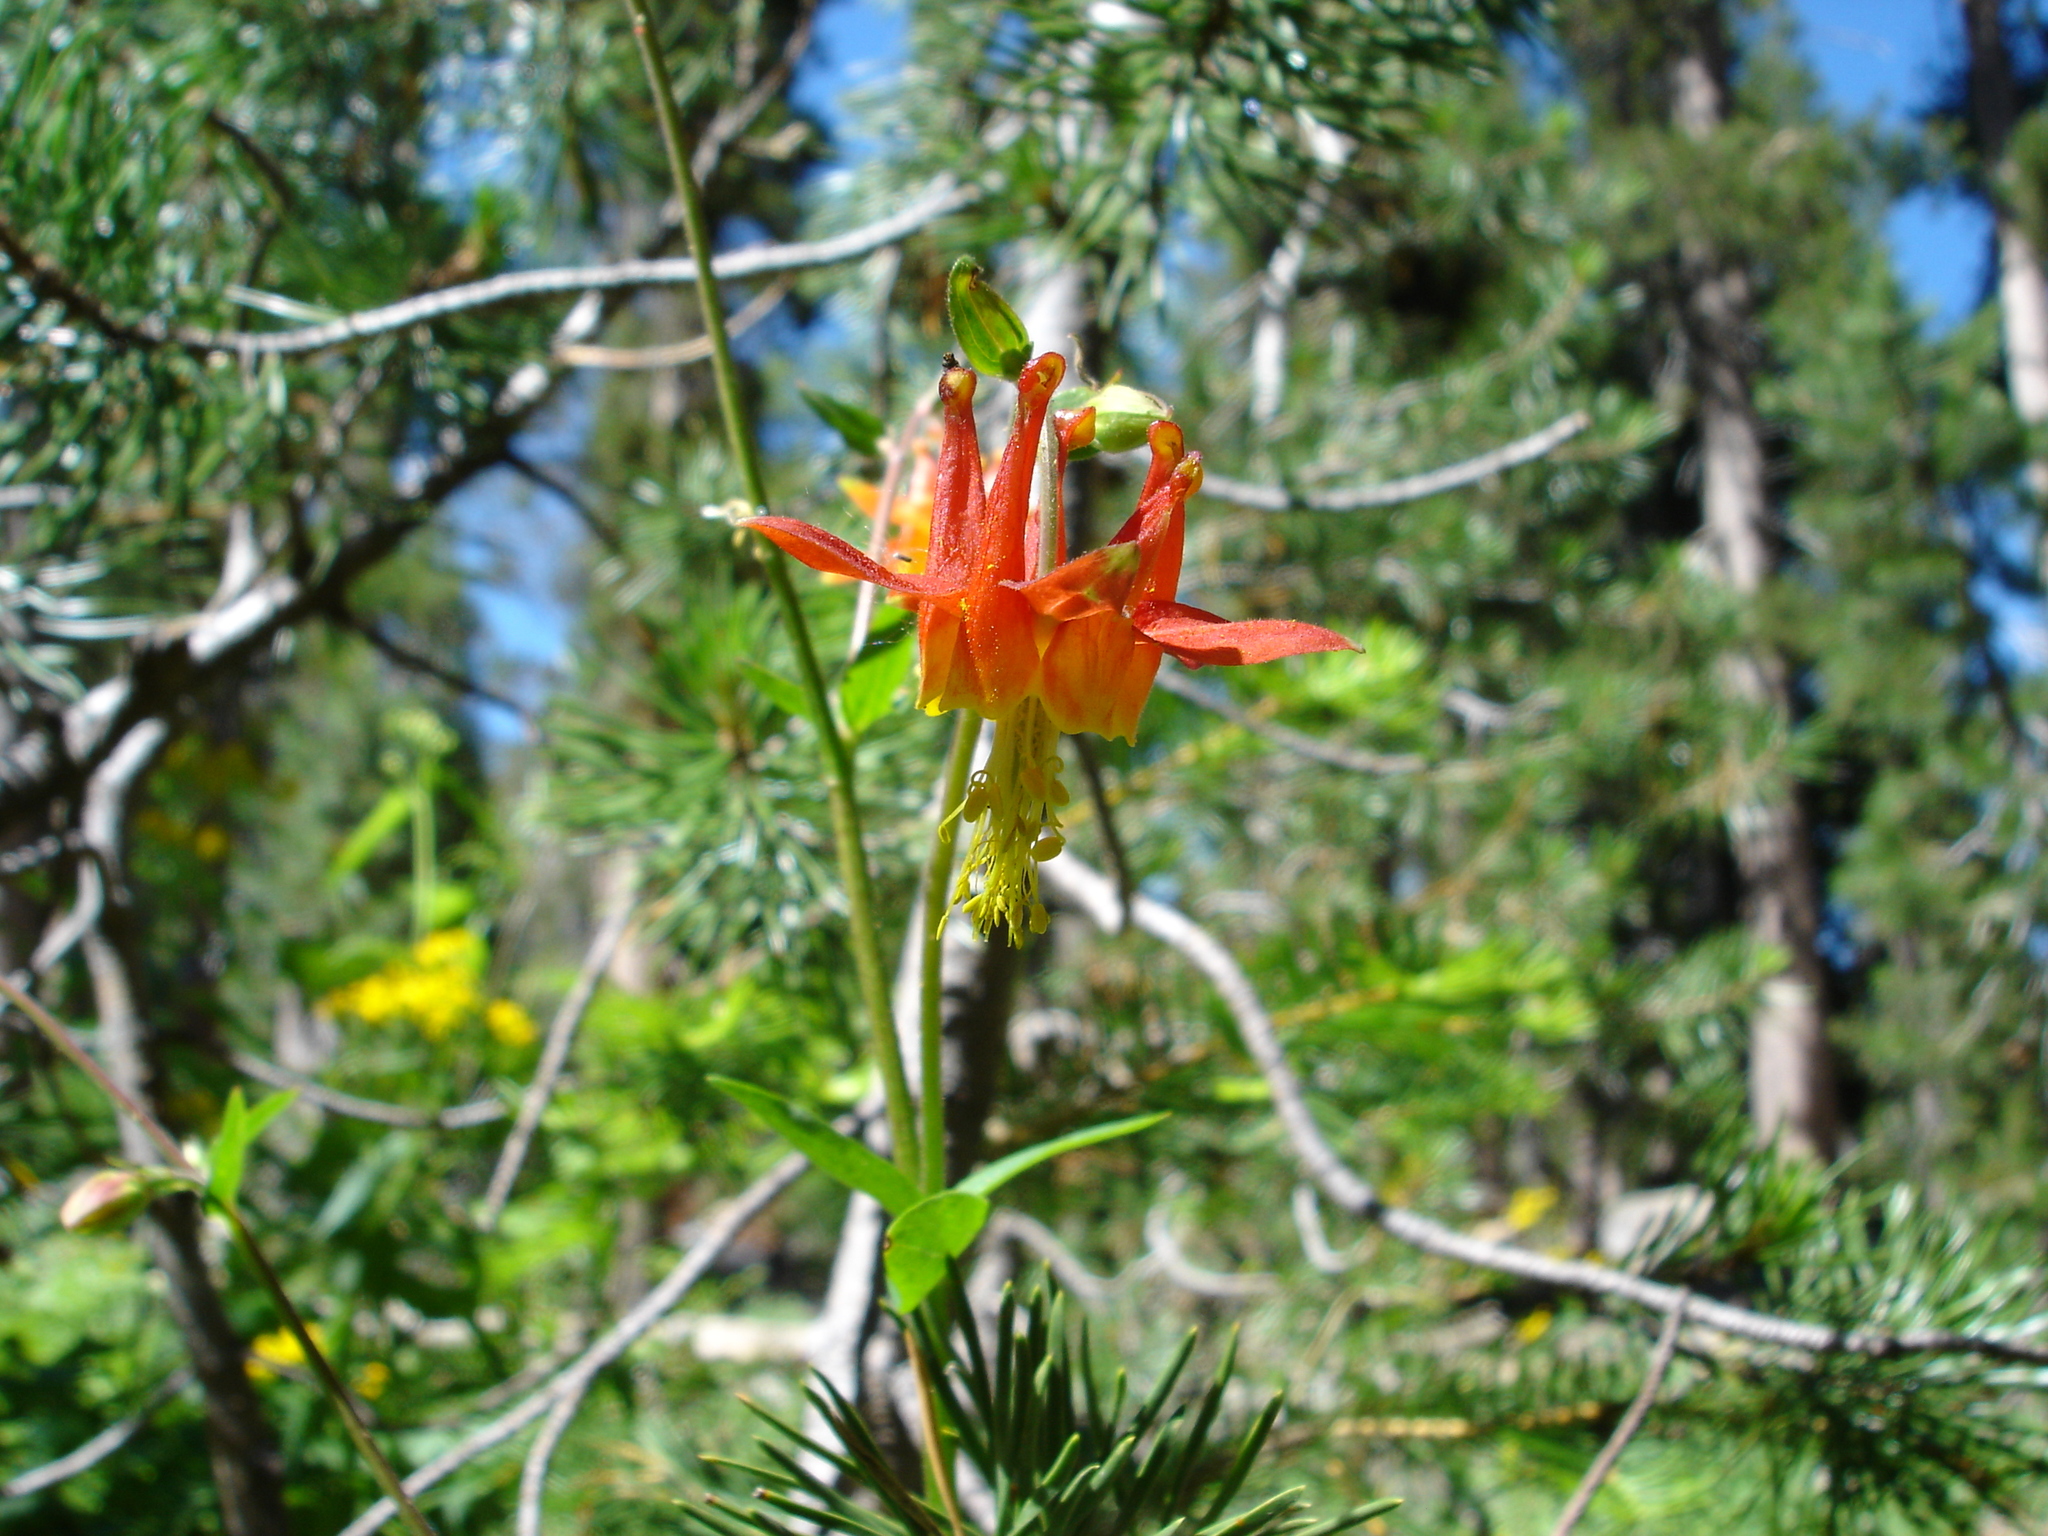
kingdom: Plantae
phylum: Tracheophyta
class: Magnoliopsida
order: Ranunculales
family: Ranunculaceae
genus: Aquilegia
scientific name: Aquilegia formosa
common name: Sitka columbine
